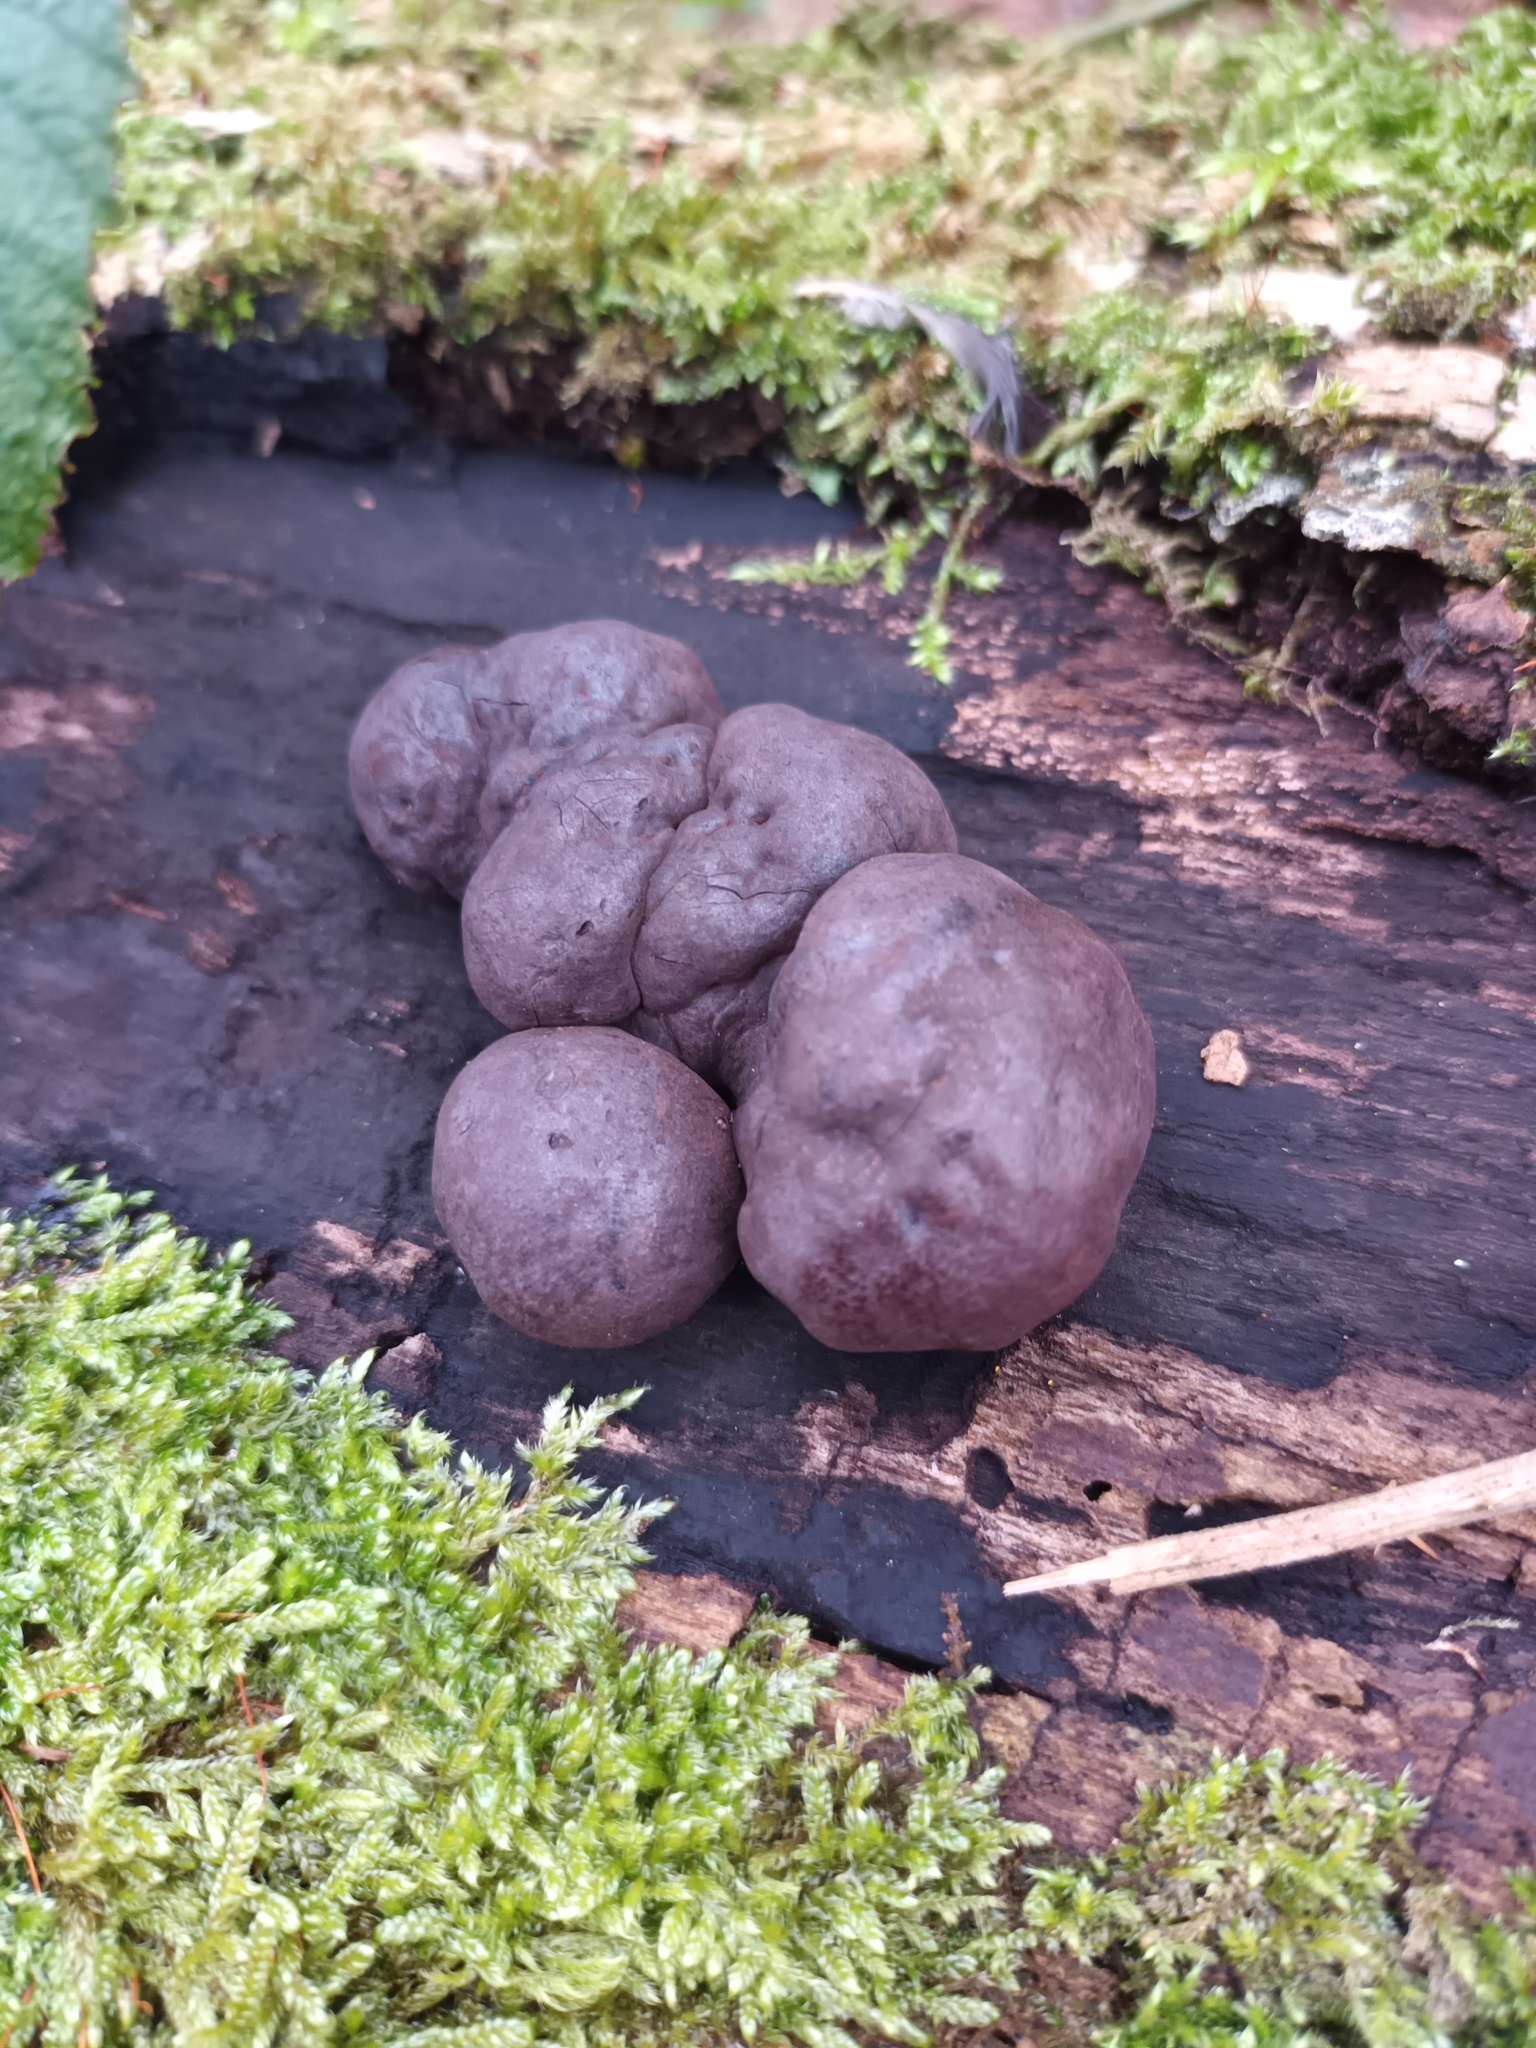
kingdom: Fungi
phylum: Ascomycota
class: Sordariomycetes
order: Xylariales
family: Hypoxylaceae
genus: Daldinia
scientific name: Daldinia concentrica
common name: Cramp balls
